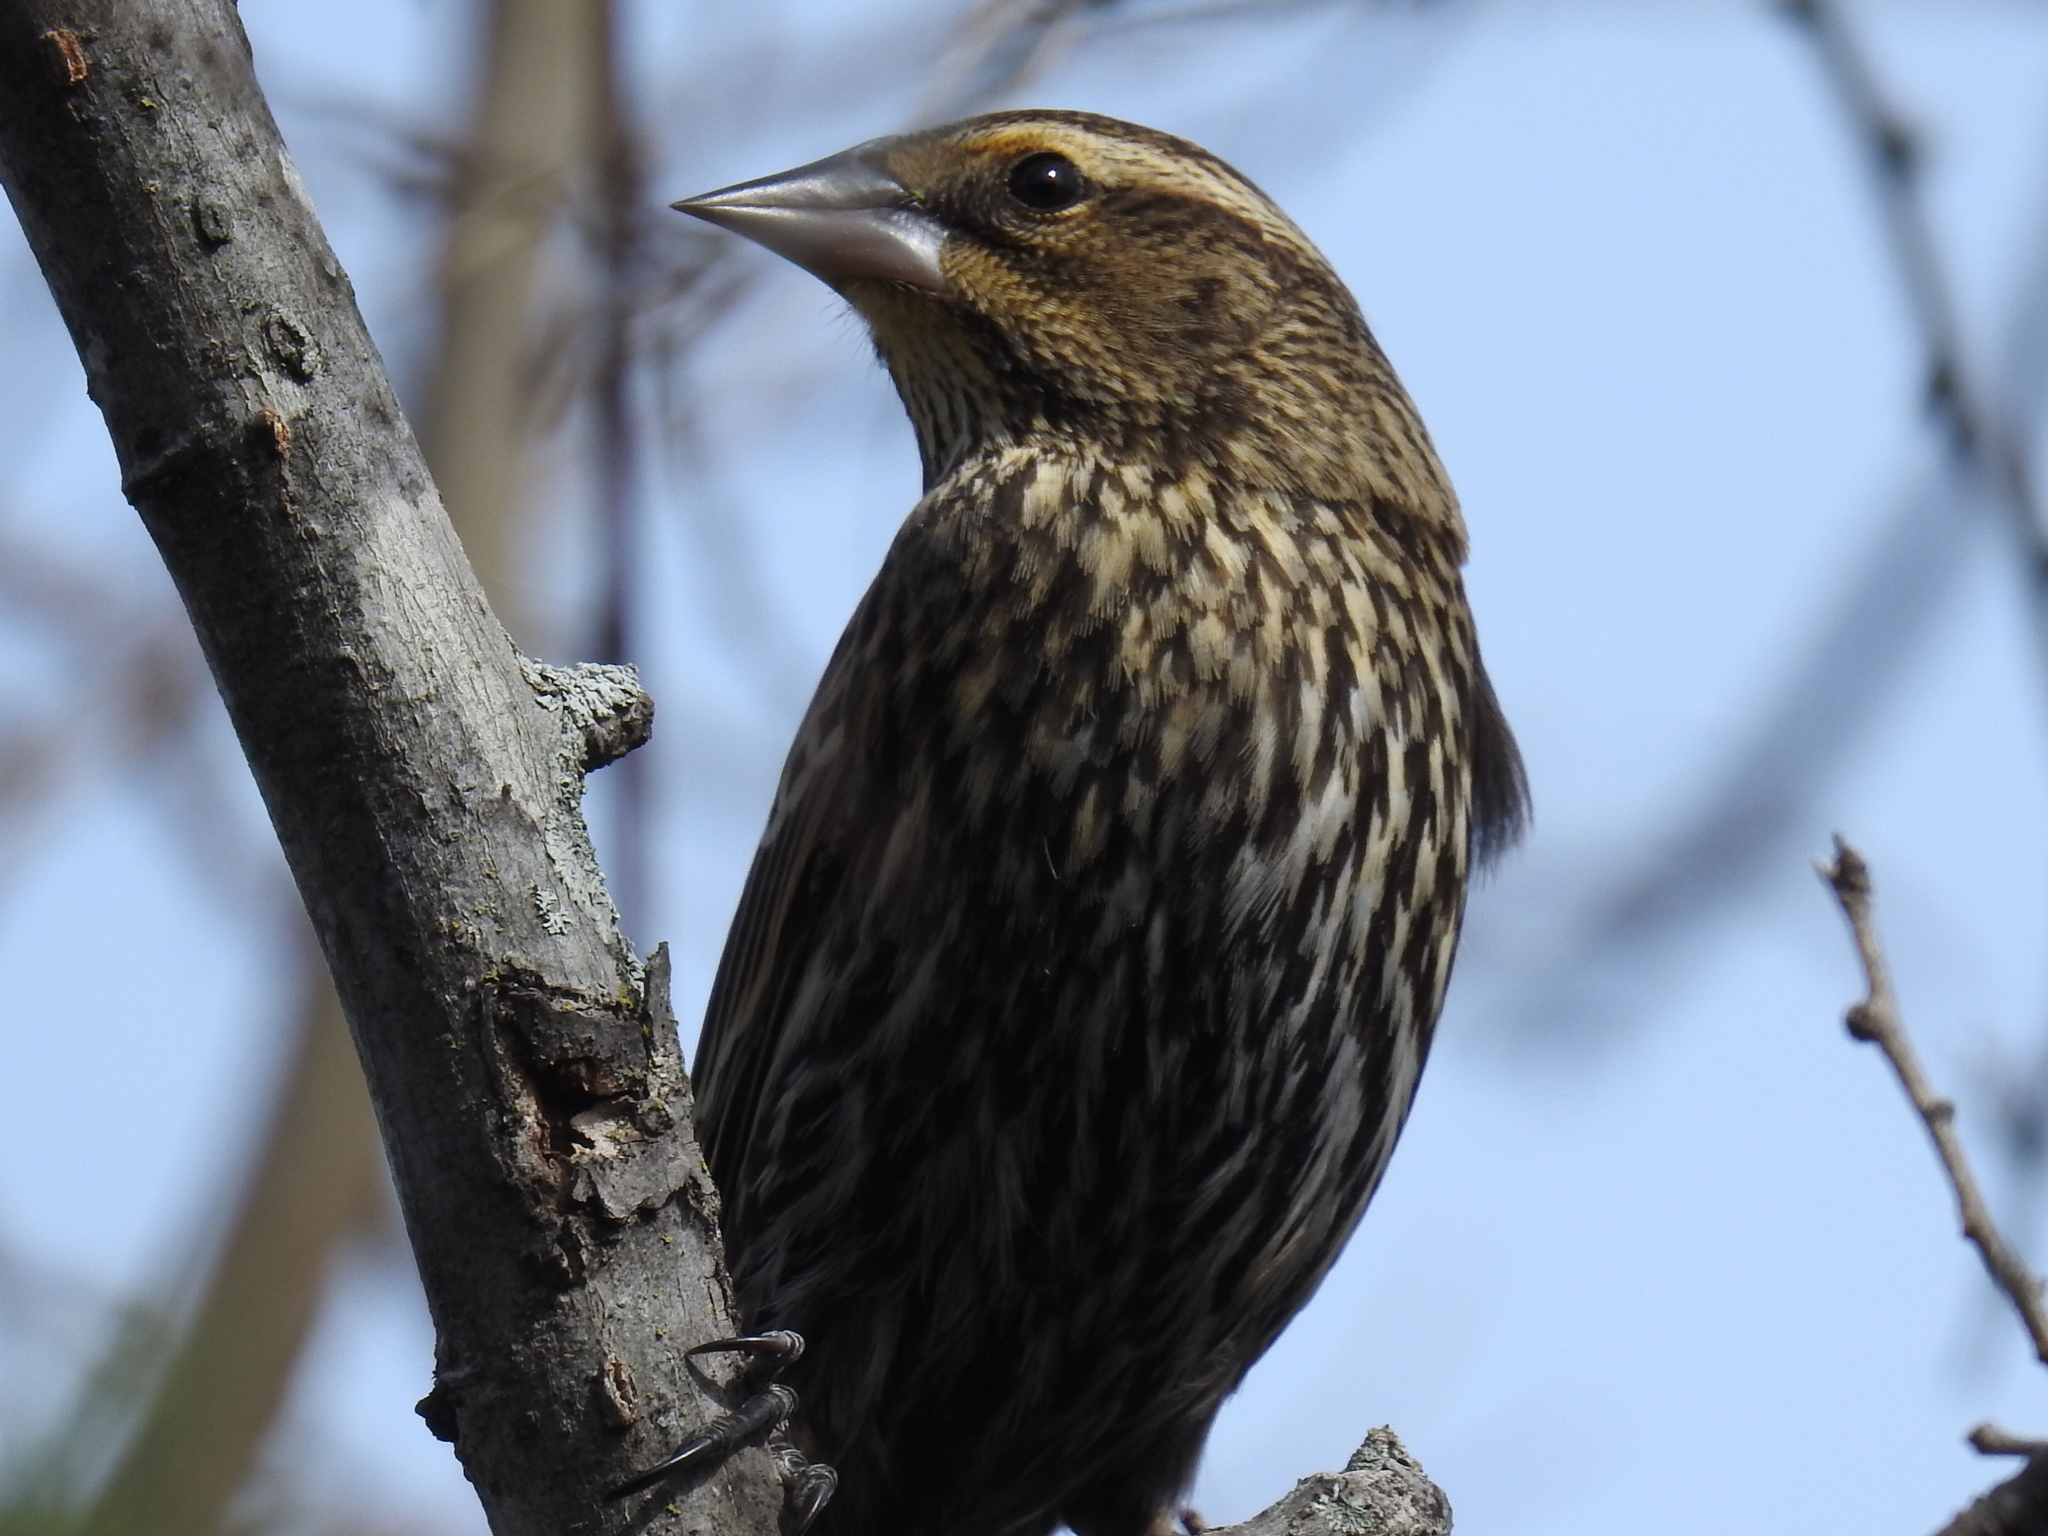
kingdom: Animalia
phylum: Chordata
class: Aves
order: Passeriformes
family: Icteridae
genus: Agelaius
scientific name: Agelaius phoeniceus
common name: Red-winged blackbird
